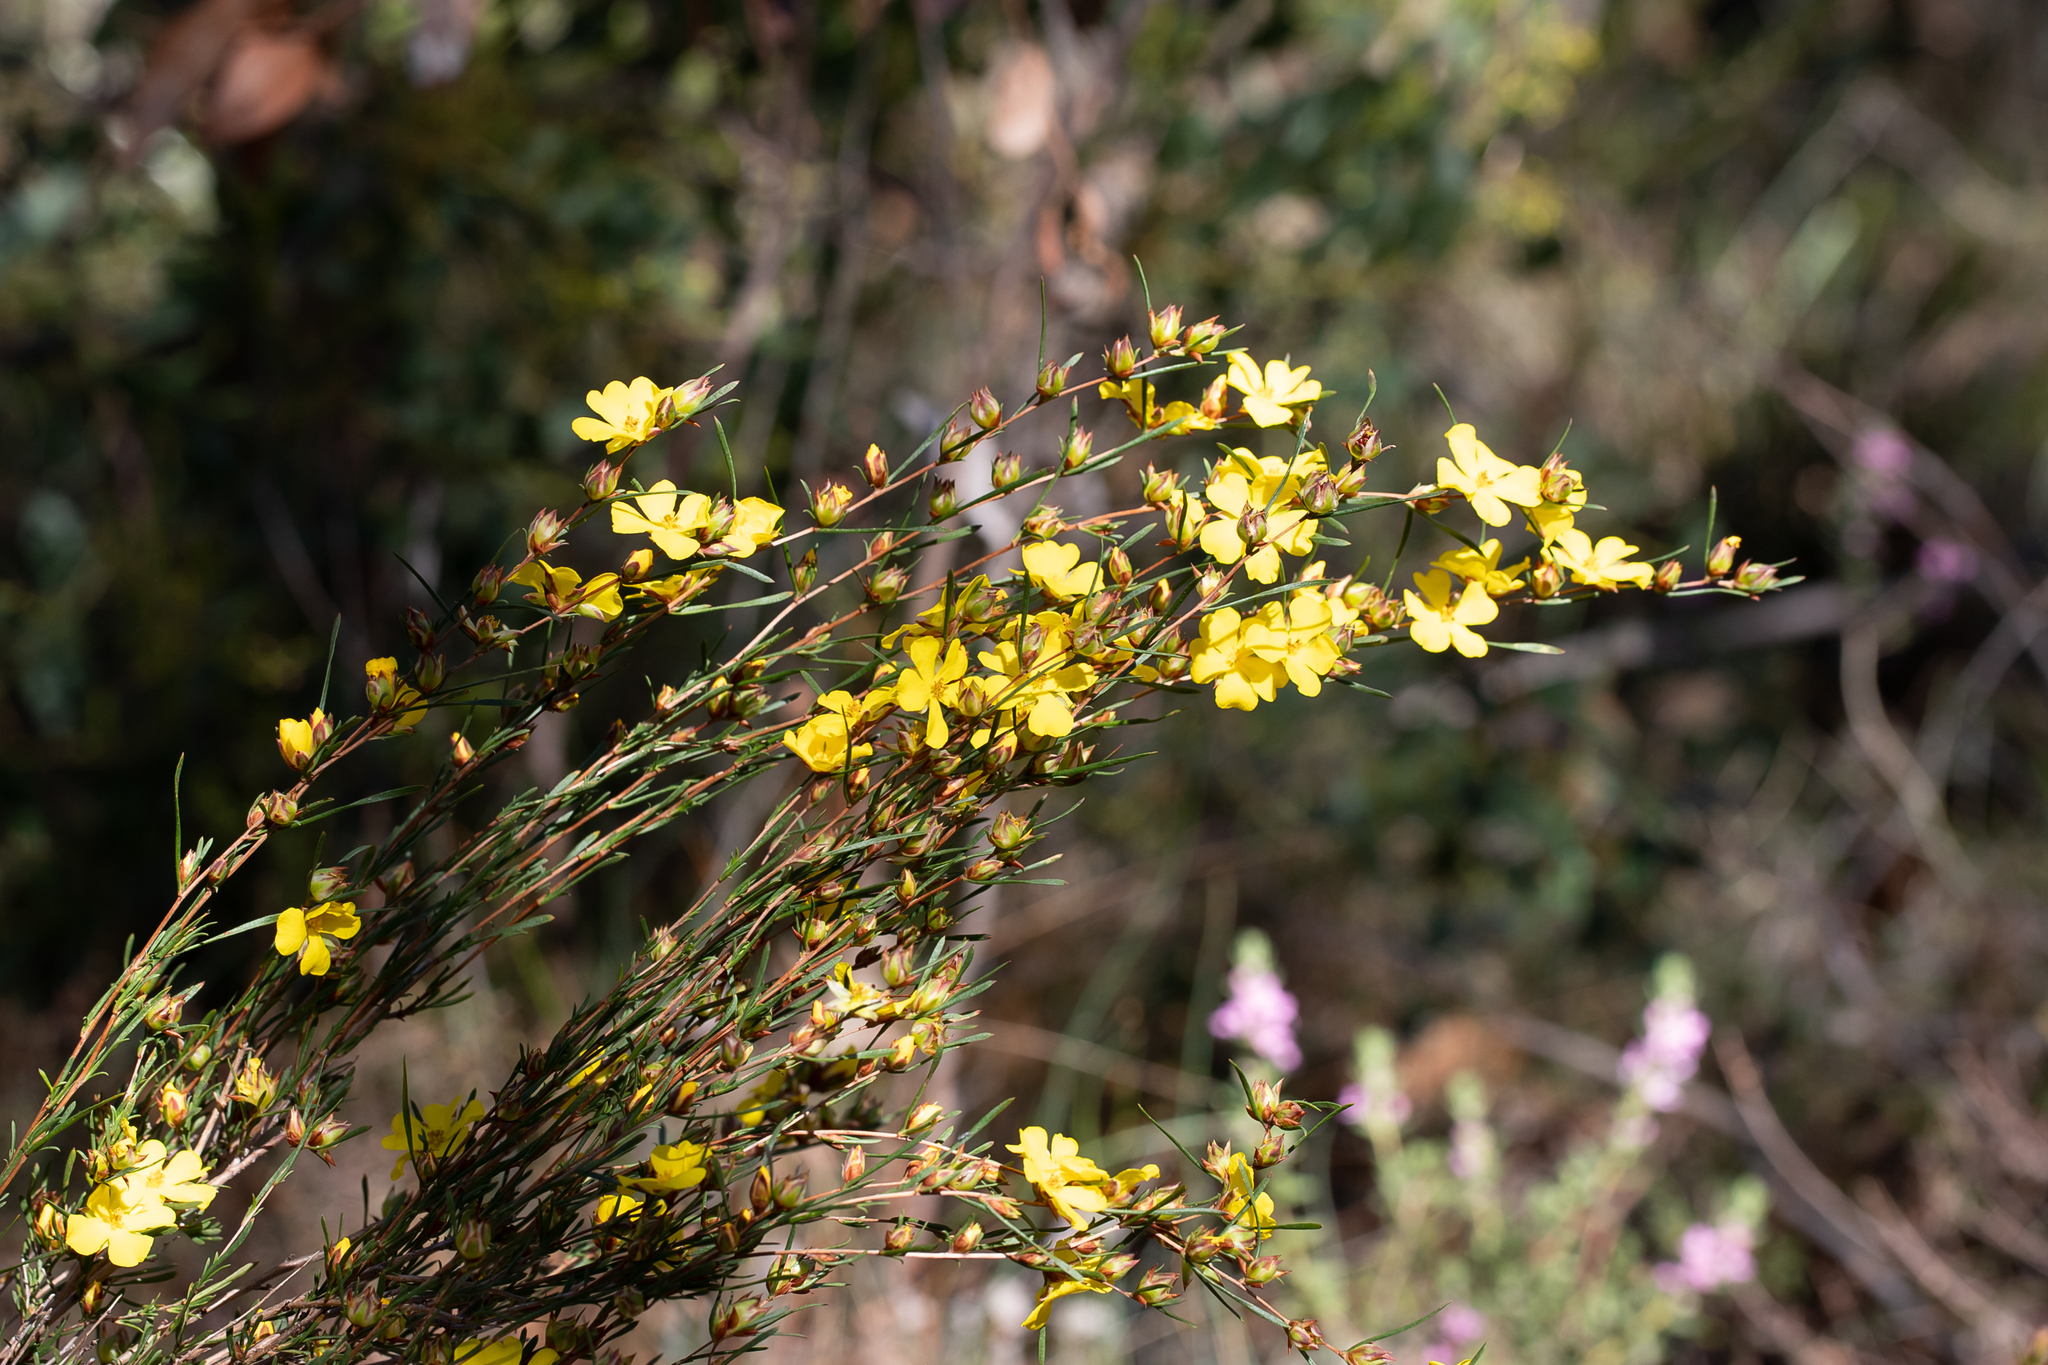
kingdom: Plantae
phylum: Tracheophyta
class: Magnoliopsida
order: Dilleniales
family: Dilleniaceae
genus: Hibbertia
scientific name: Hibbertia virgata
